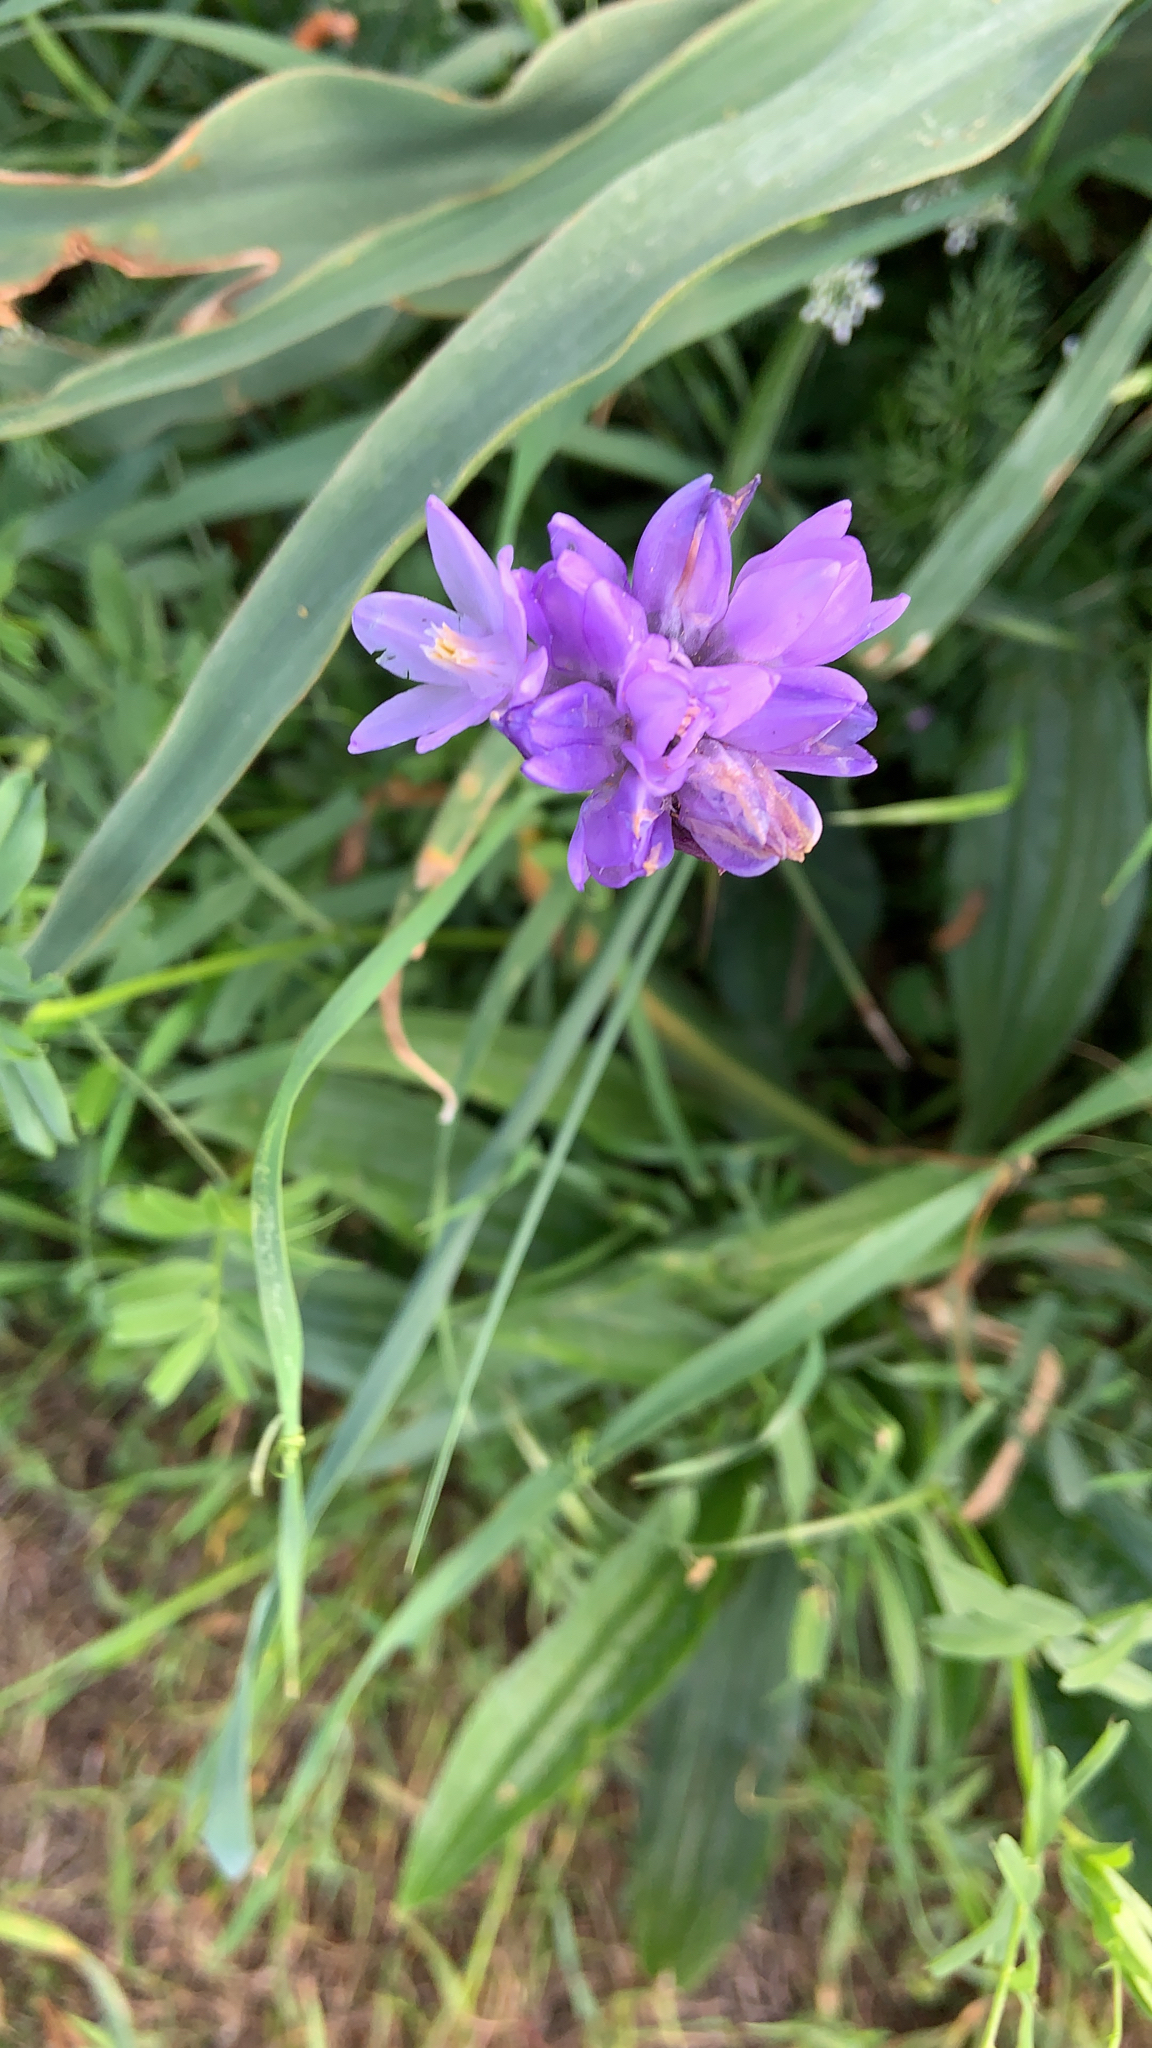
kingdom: Plantae
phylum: Tracheophyta
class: Liliopsida
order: Asparagales
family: Asparagaceae
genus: Dipterostemon
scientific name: Dipterostemon capitatus
